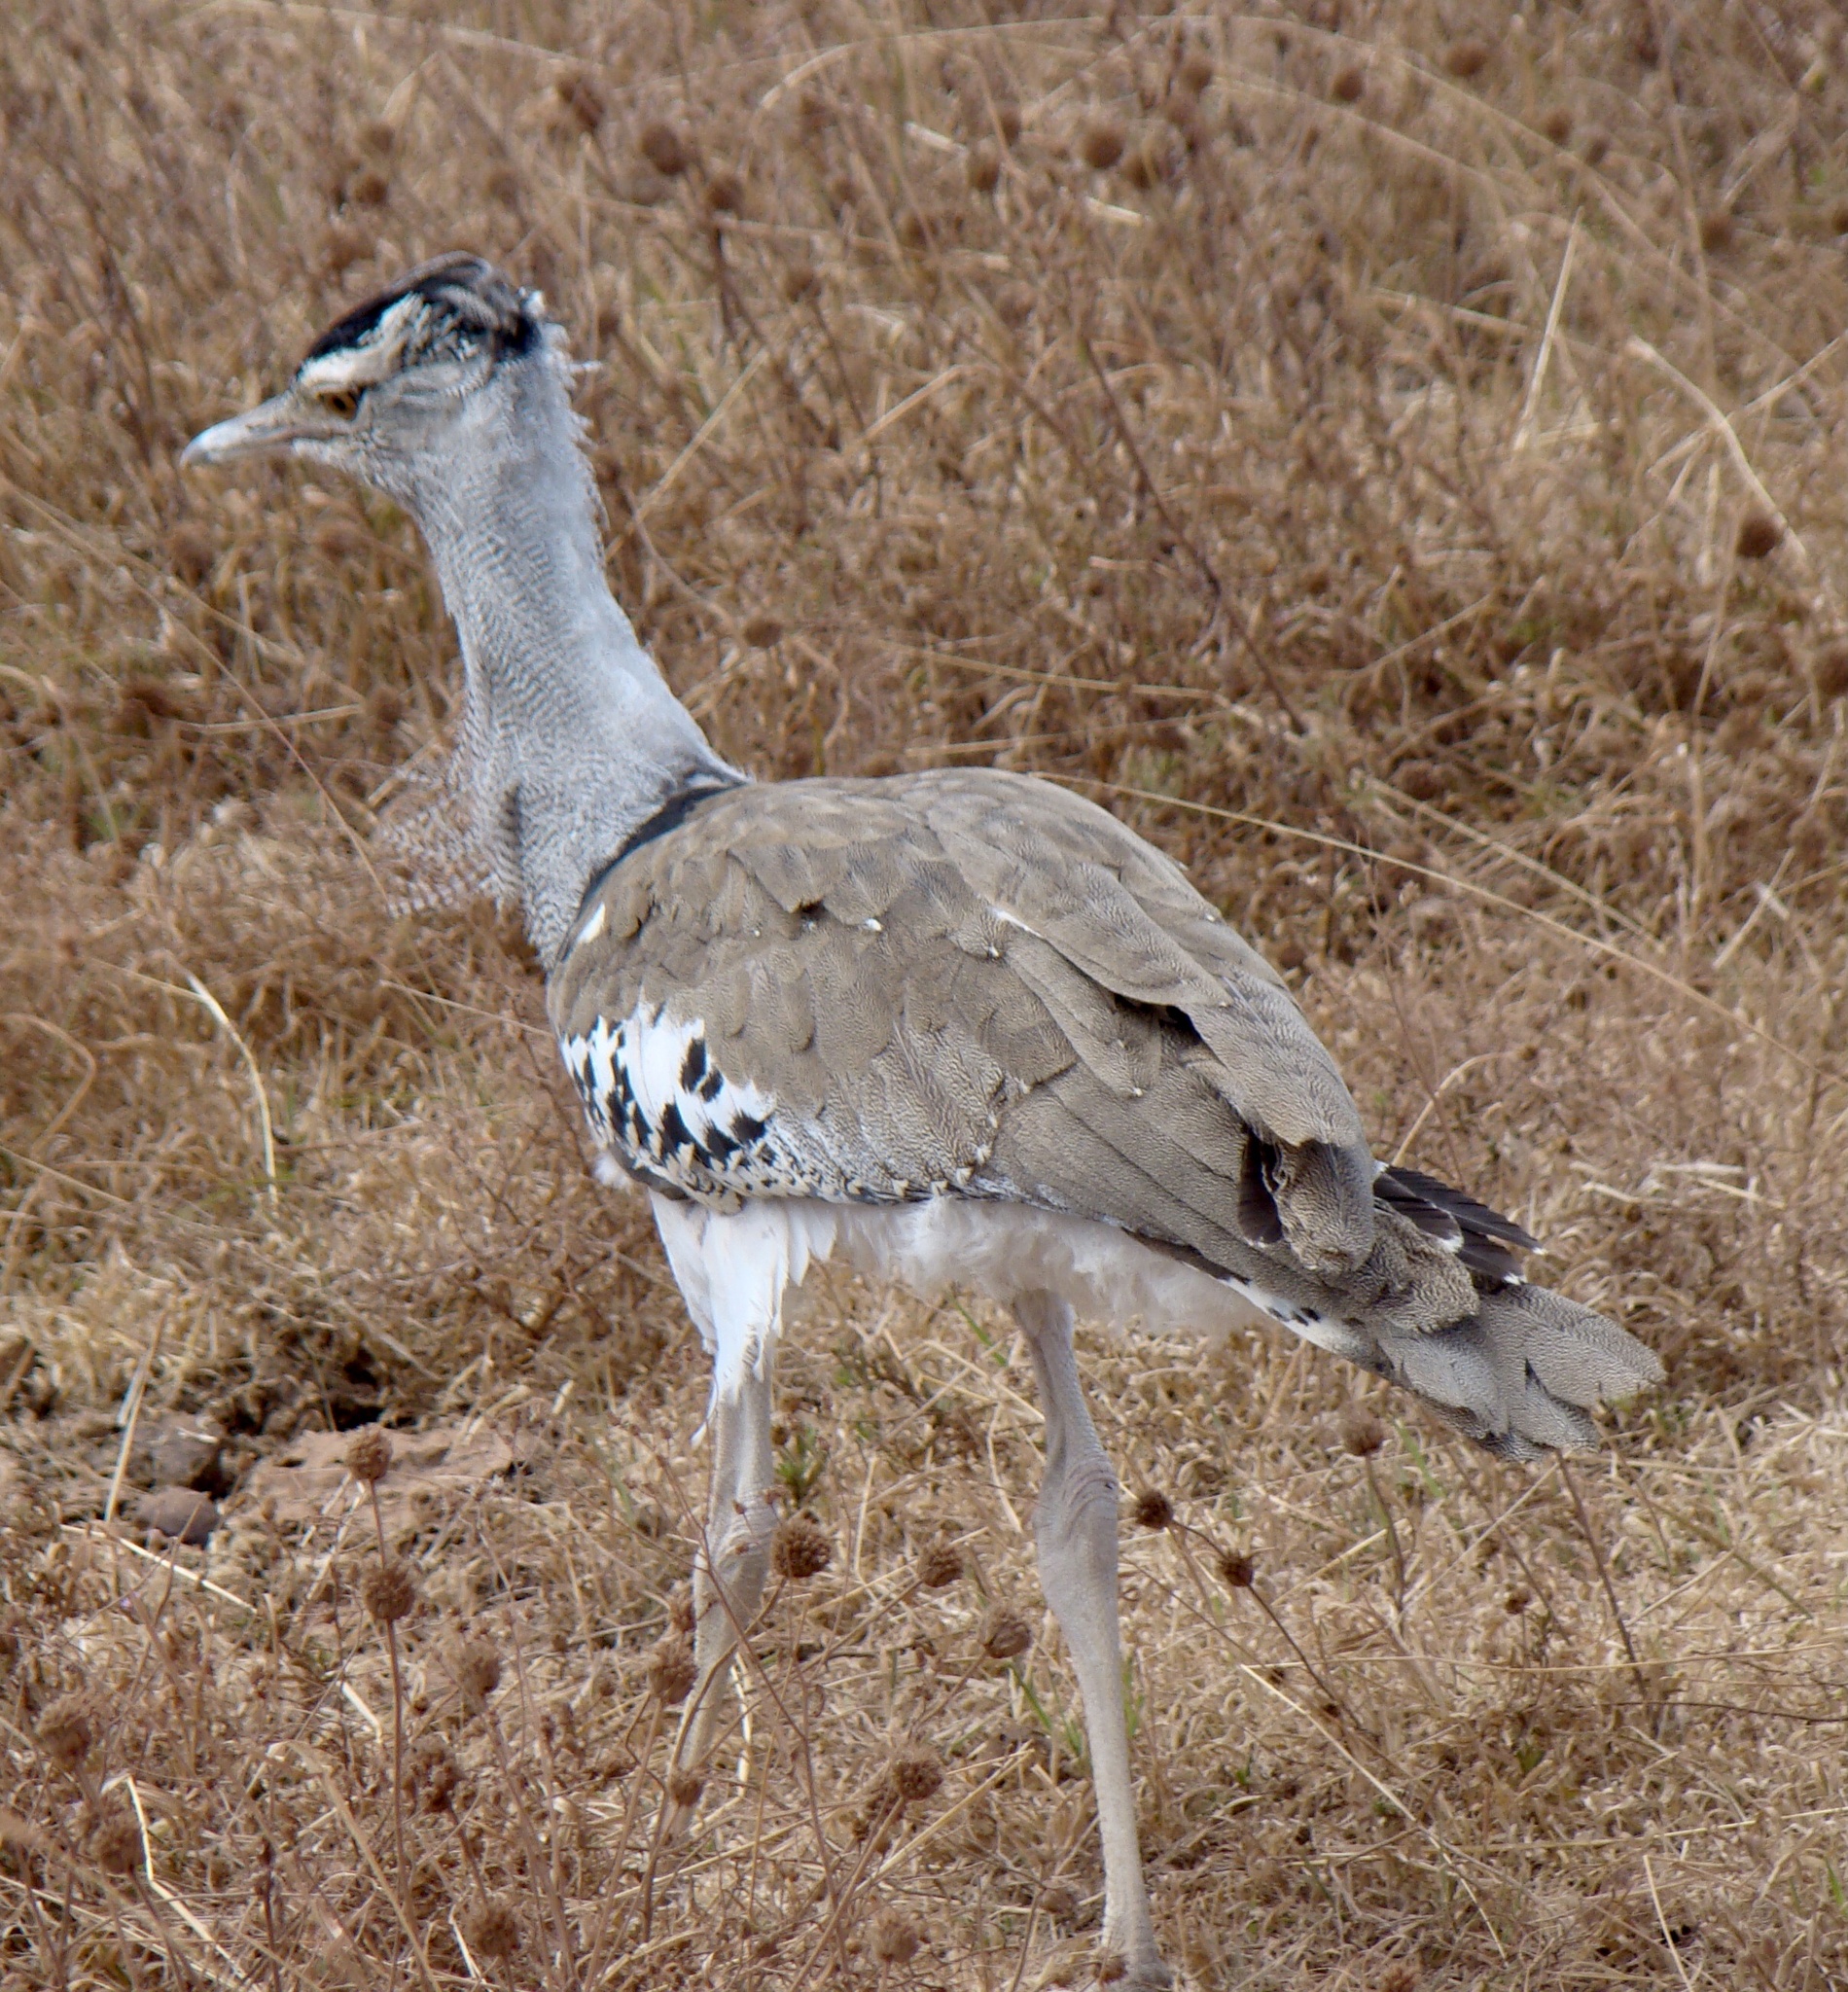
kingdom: Animalia
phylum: Chordata
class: Aves
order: Otidiformes
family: Otididae
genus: Ardeotis
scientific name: Ardeotis kori
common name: Kori bustard
